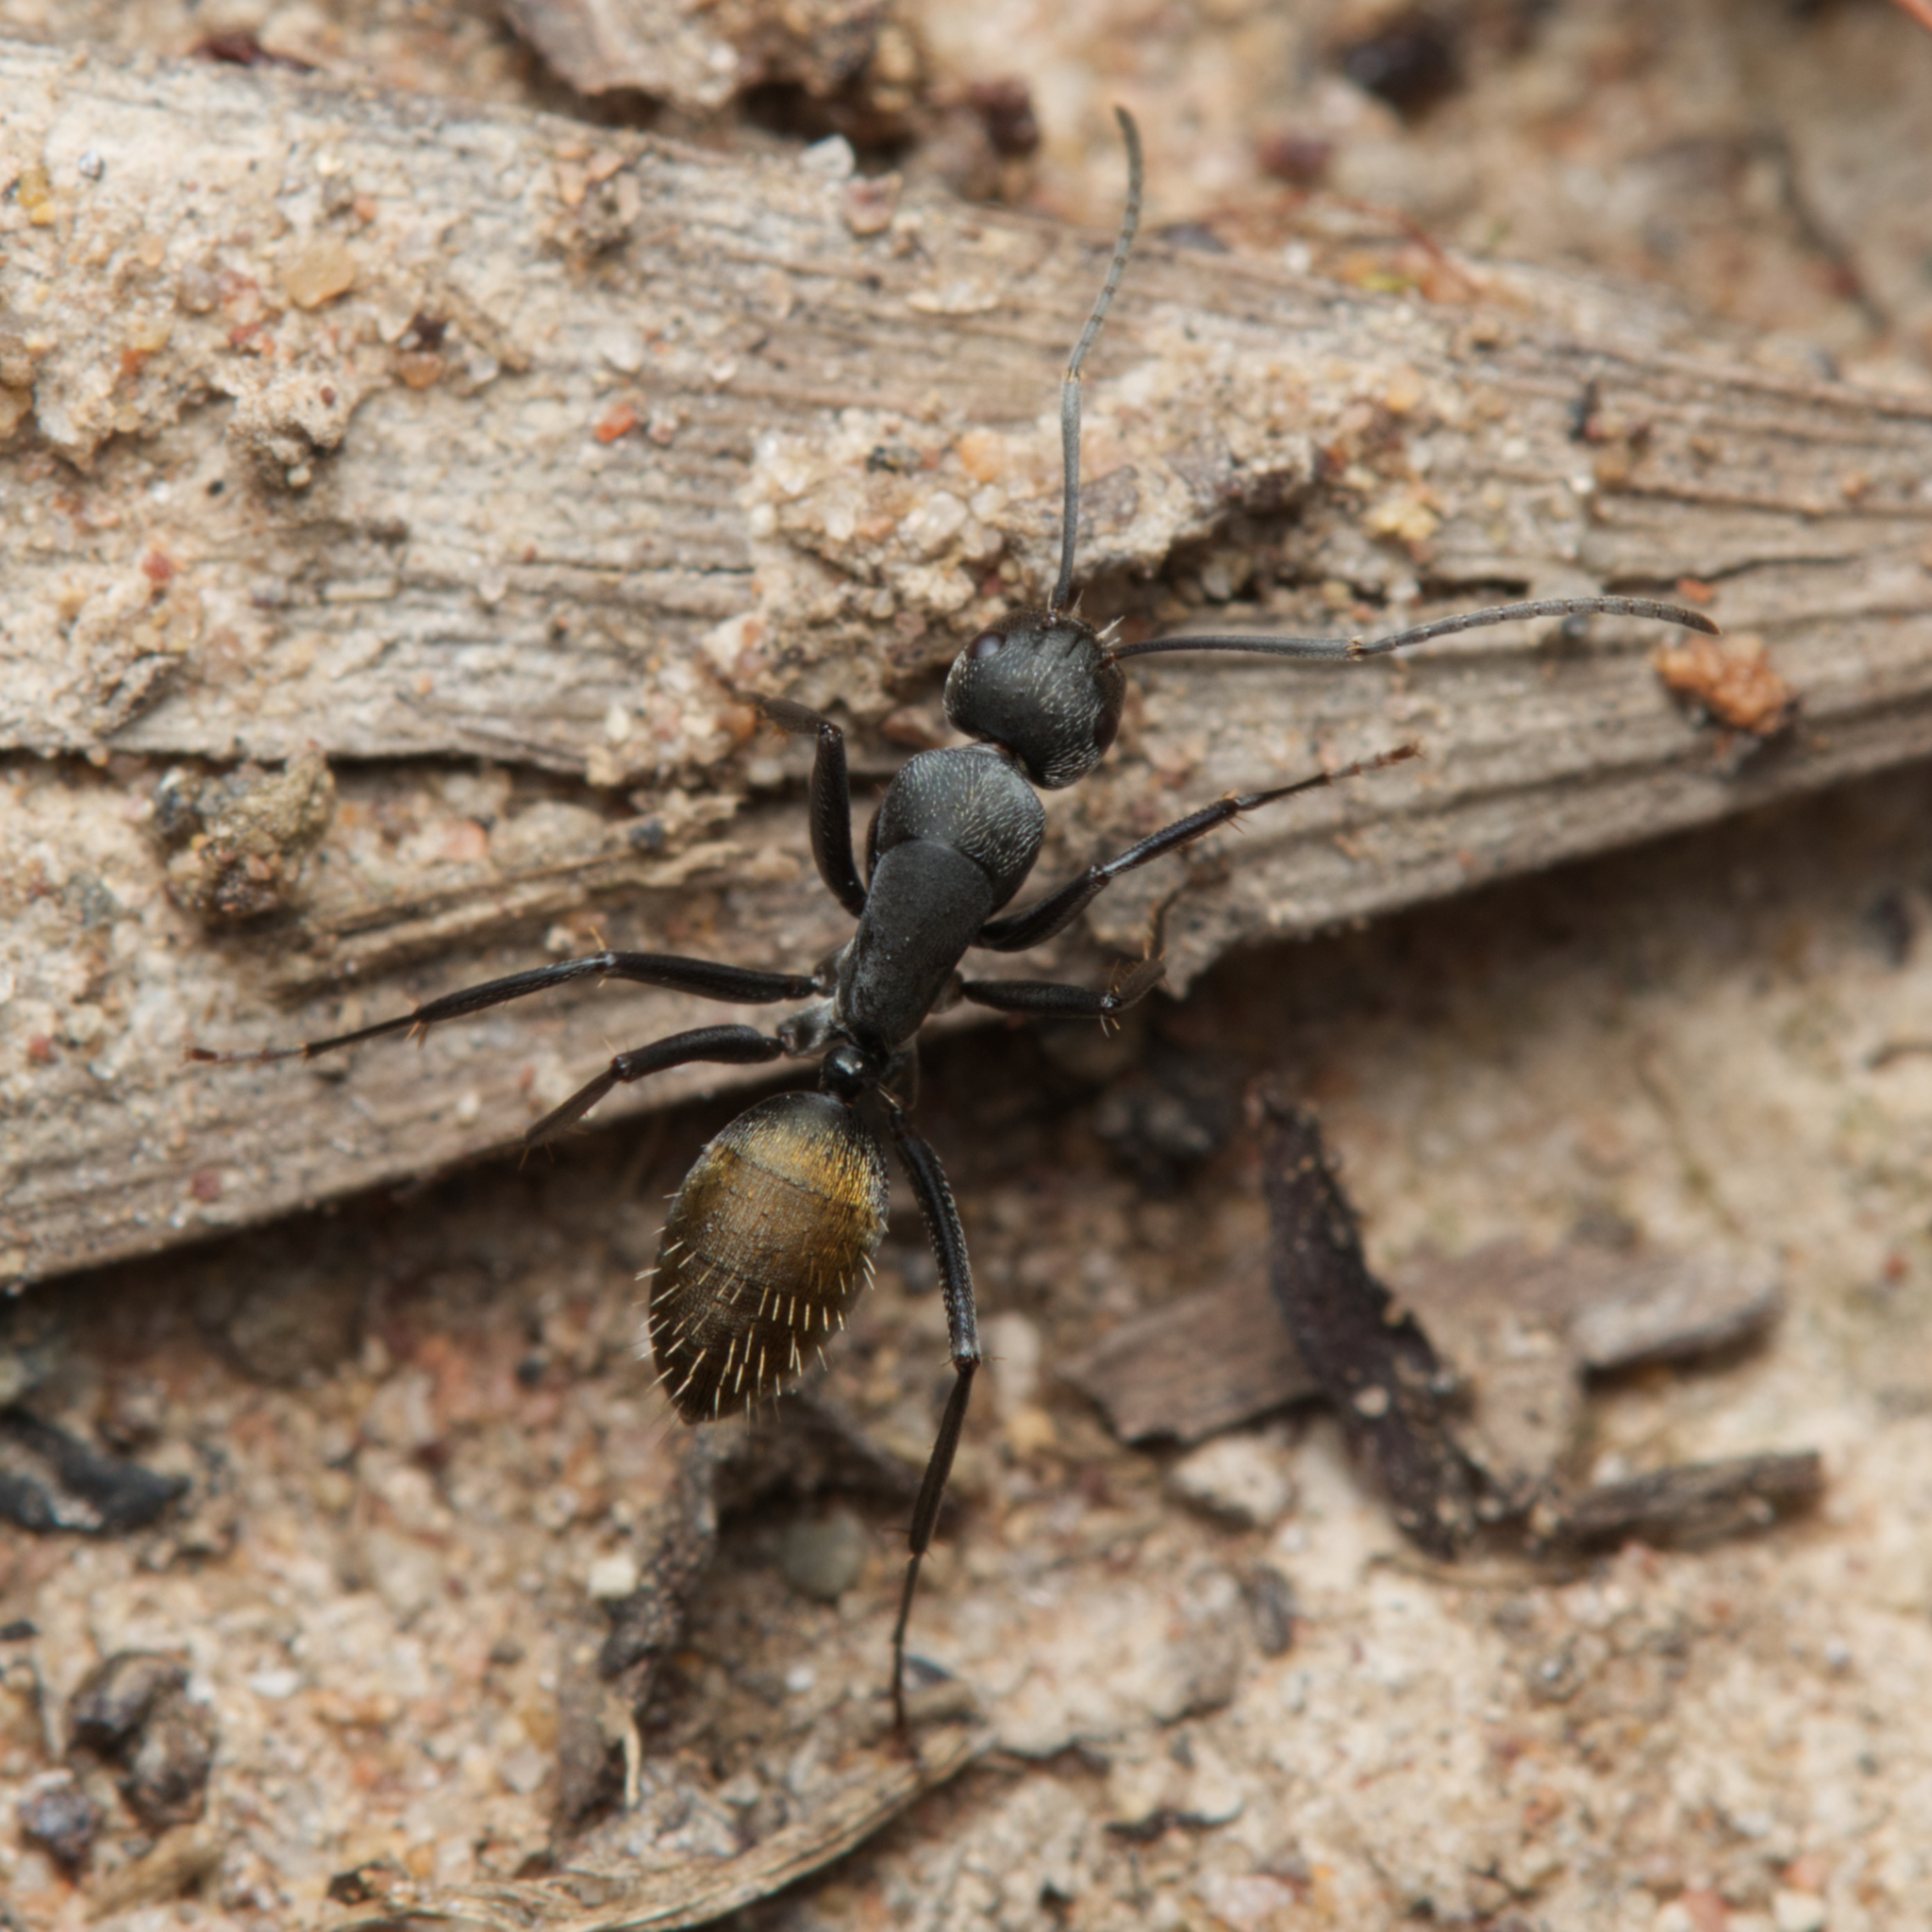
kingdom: Animalia
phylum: Arthropoda
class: Insecta
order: Hymenoptera
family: Formicidae
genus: Camponotus
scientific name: Camponotus aeneopilosus
